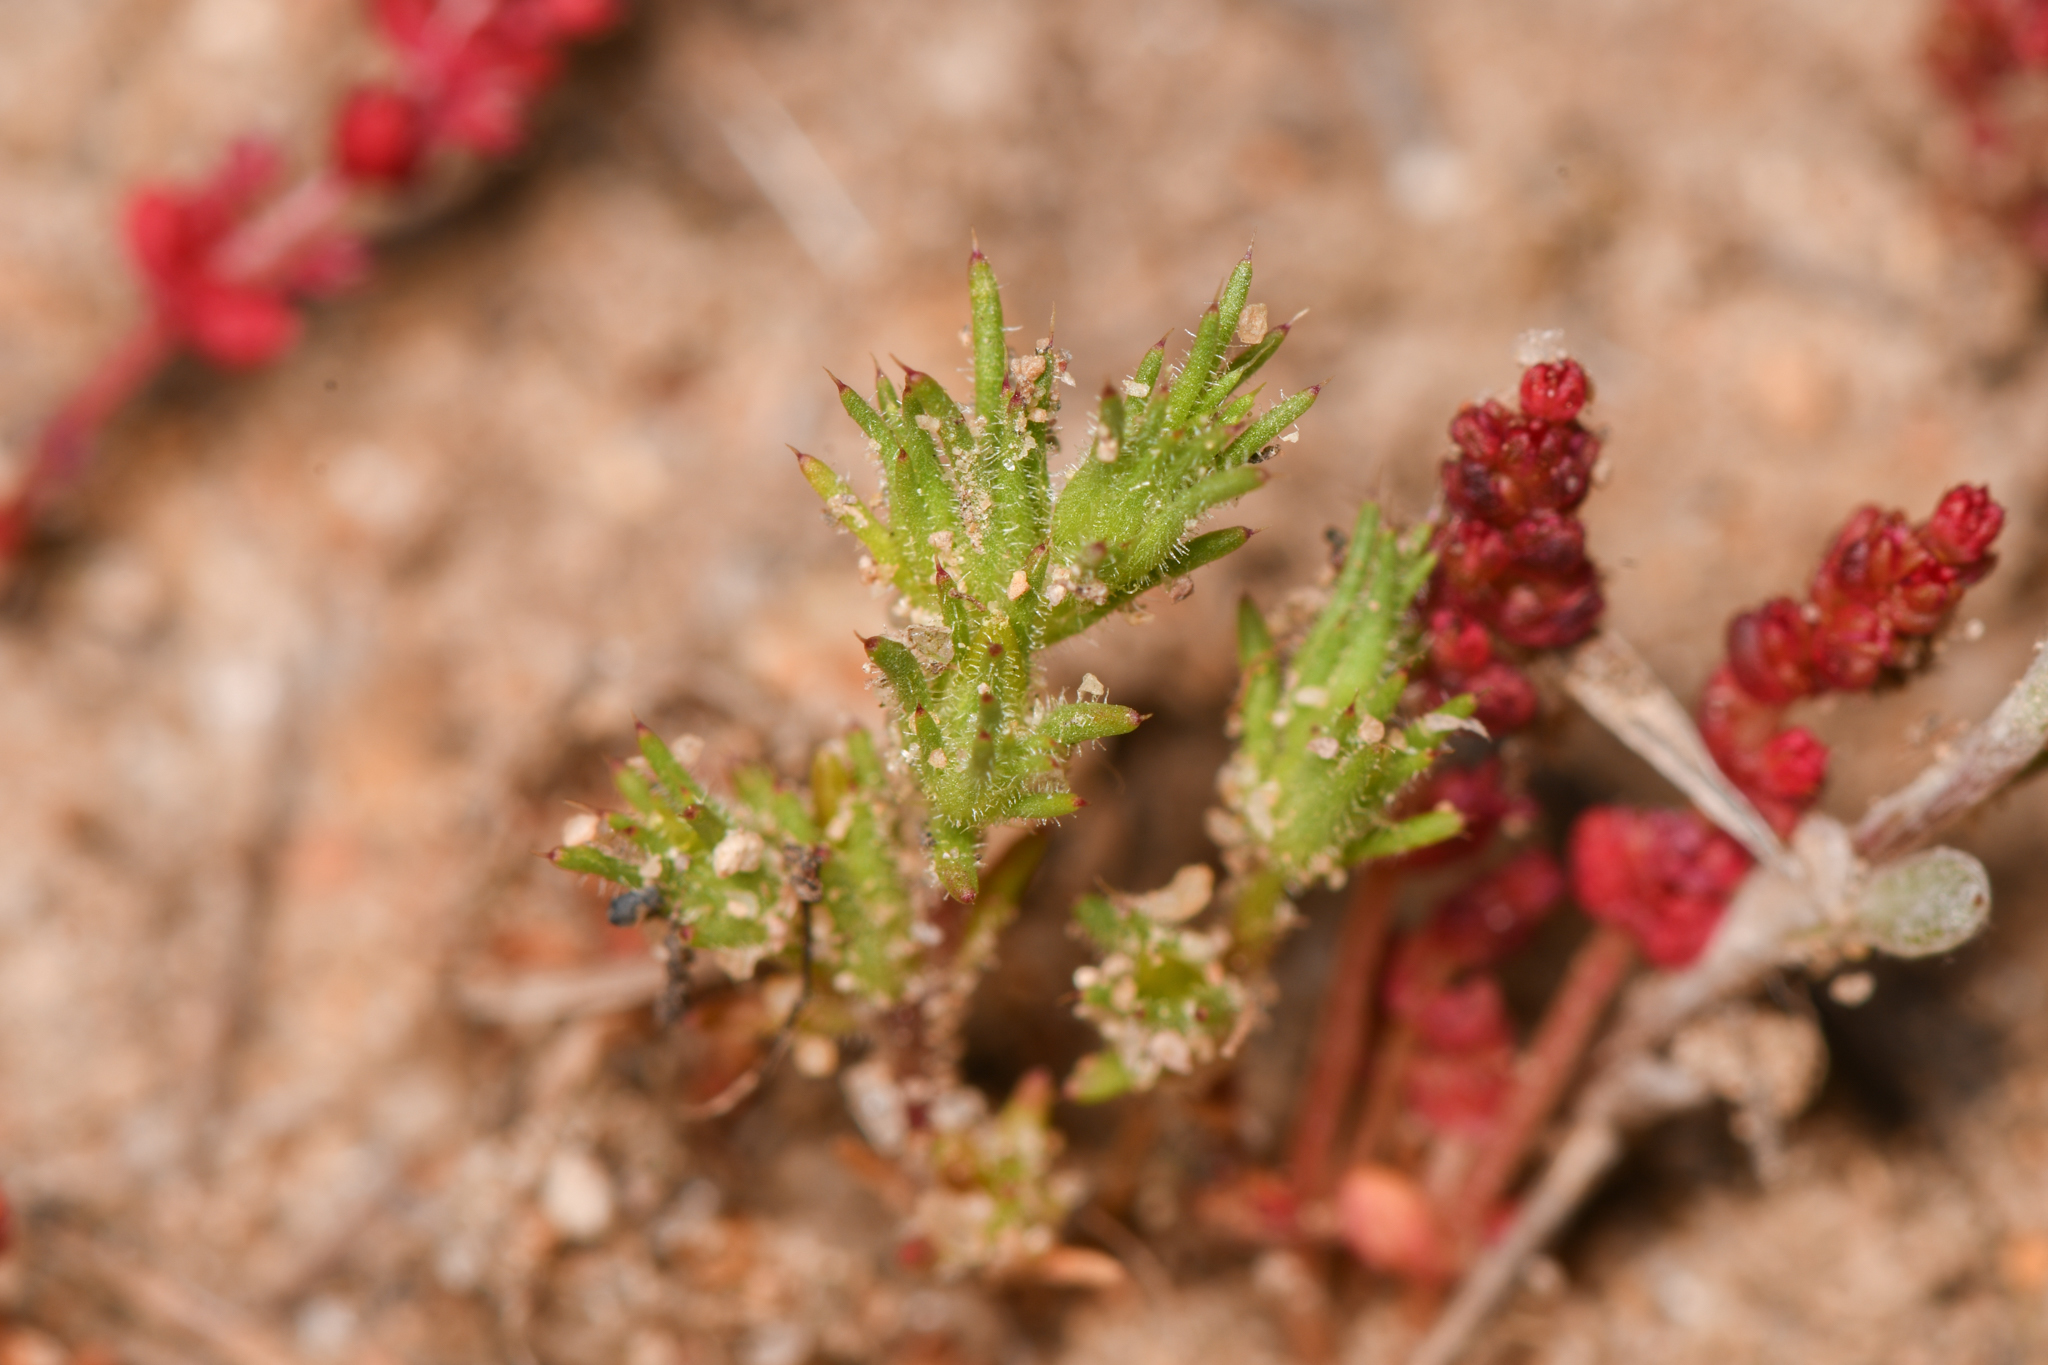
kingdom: Plantae
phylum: Tracheophyta
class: Magnoliopsida
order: Caryophyllales
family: Caryophyllaceae
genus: Loeflingia
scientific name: Loeflingia squarrosa
